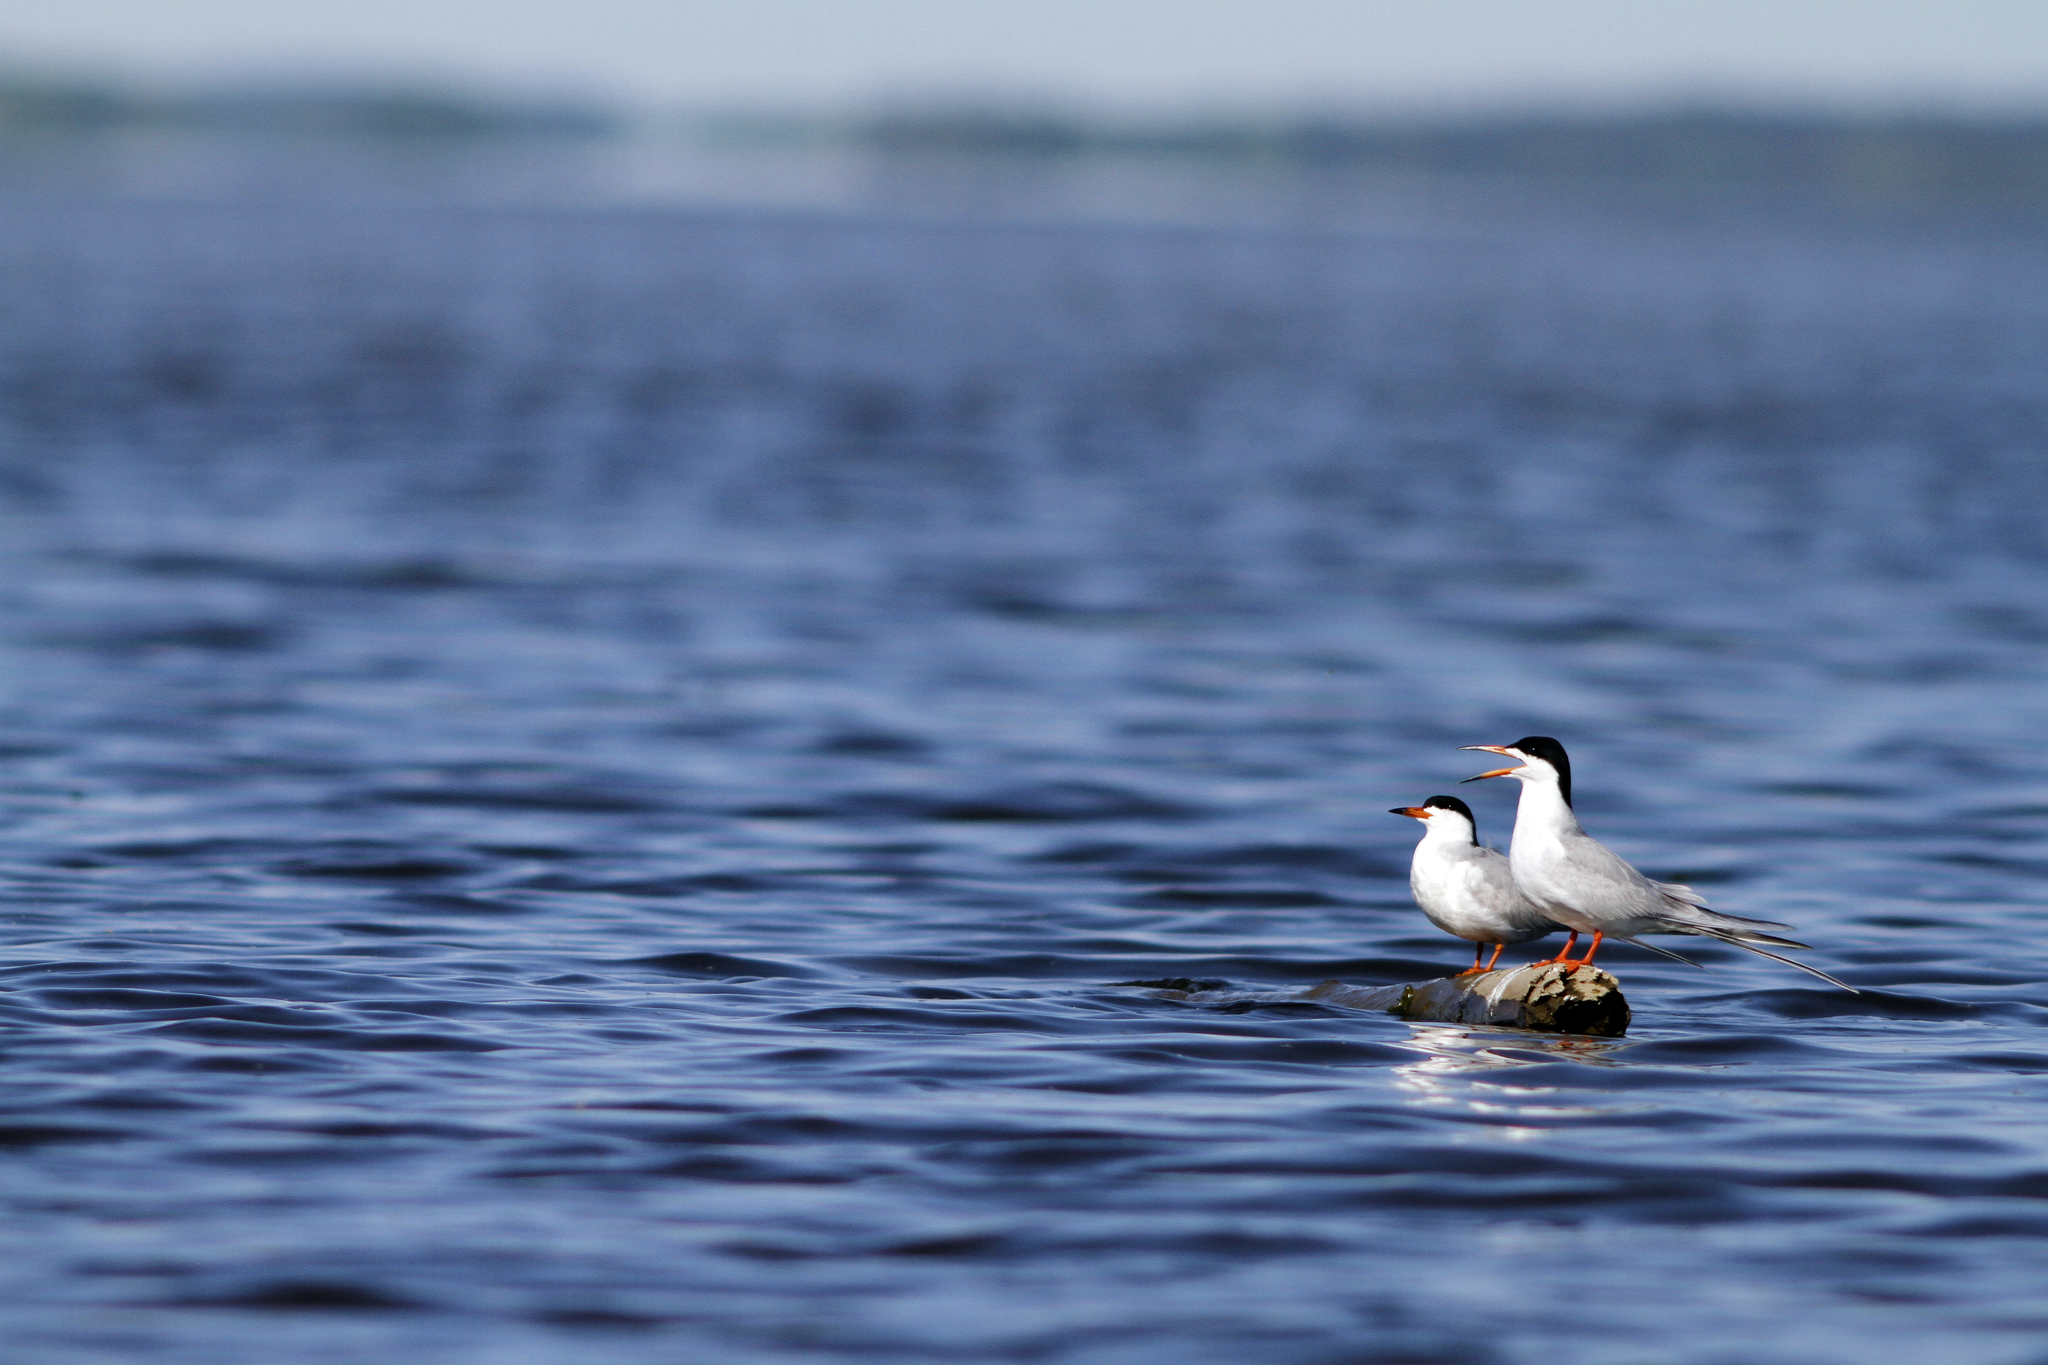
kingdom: Animalia
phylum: Chordata
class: Aves
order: Charadriiformes
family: Laridae
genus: Sterna
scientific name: Sterna forsteri
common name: Forster's tern
